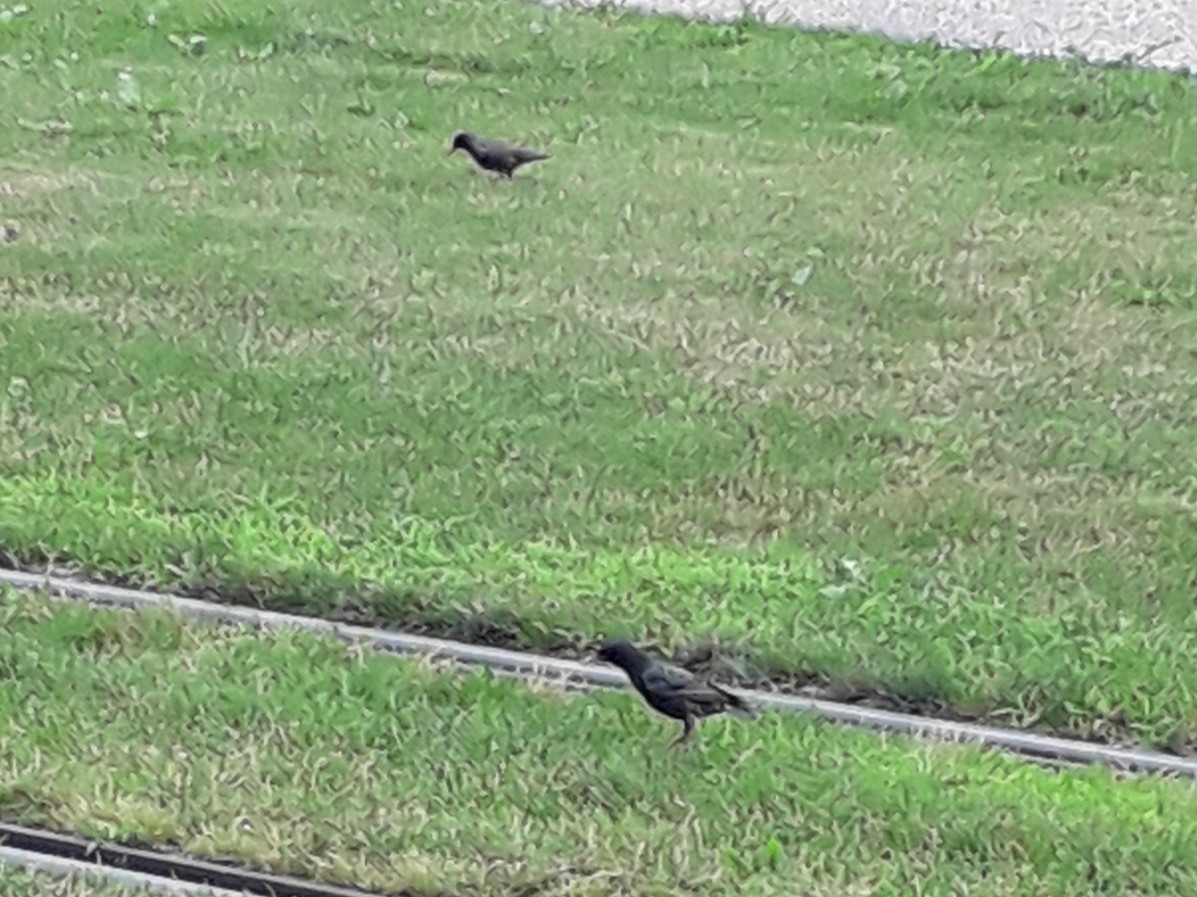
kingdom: Animalia
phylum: Chordata
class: Aves
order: Passeriformes
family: Sturnidae
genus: Sturnus
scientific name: Sturnus vulgaris
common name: Common starling
